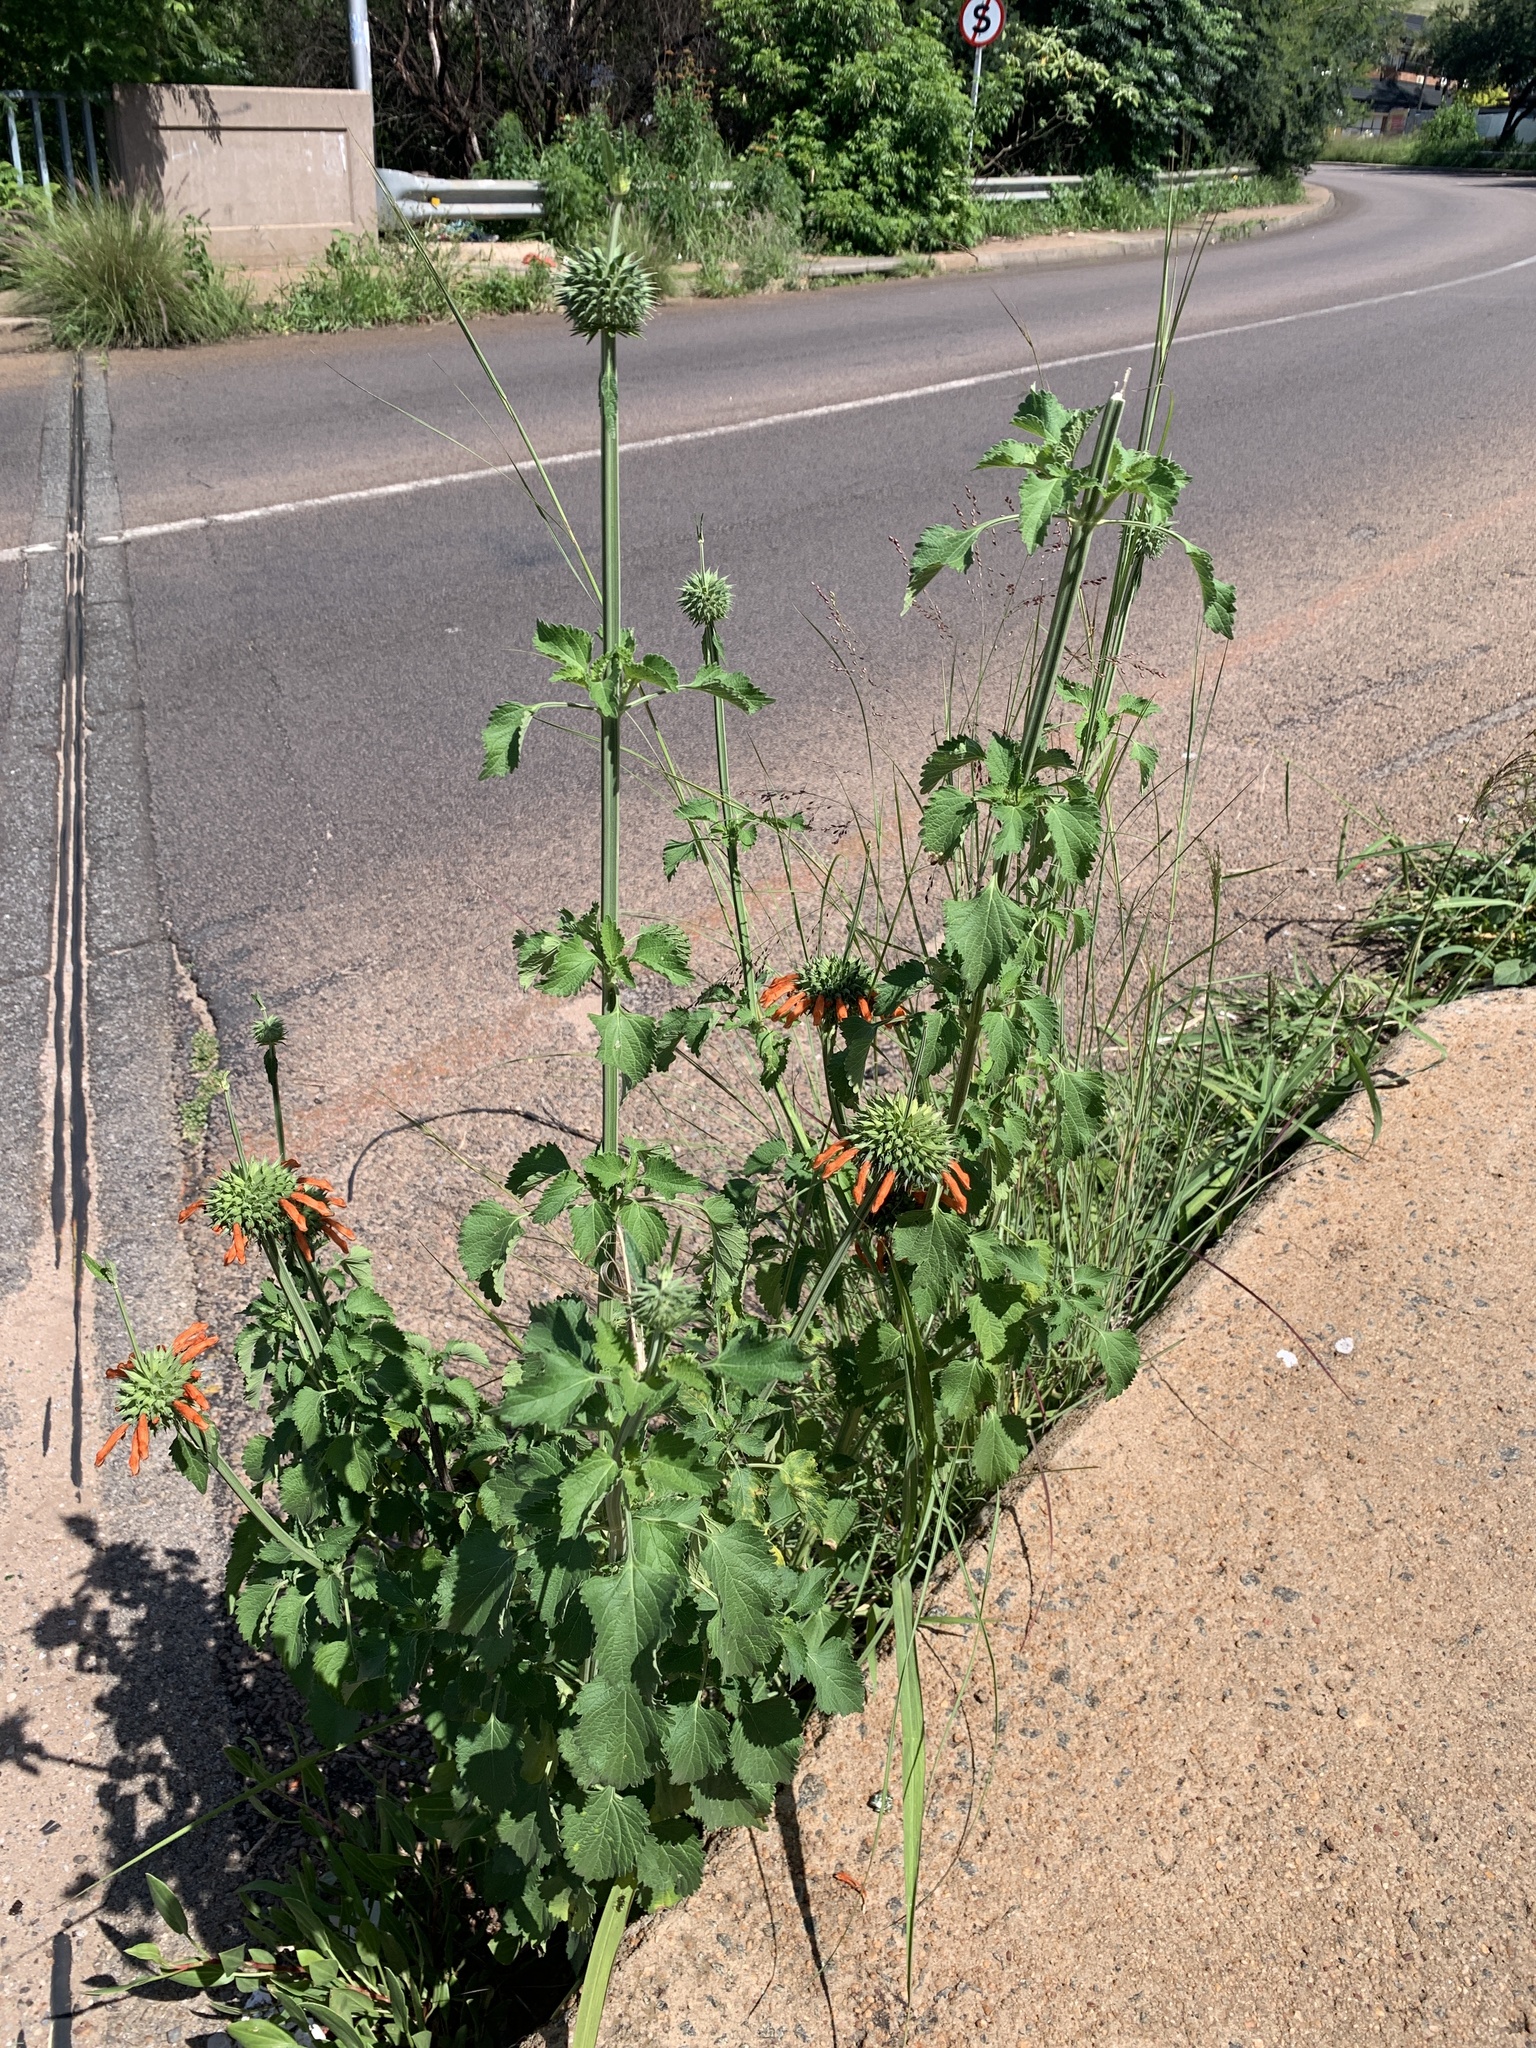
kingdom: Plantae
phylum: Tracheophyta
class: Magnoliopsida
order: Lamiales
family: Lamiaceae
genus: Leonotis
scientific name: Leonotis nepetifolia
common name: Christmas candlestick
